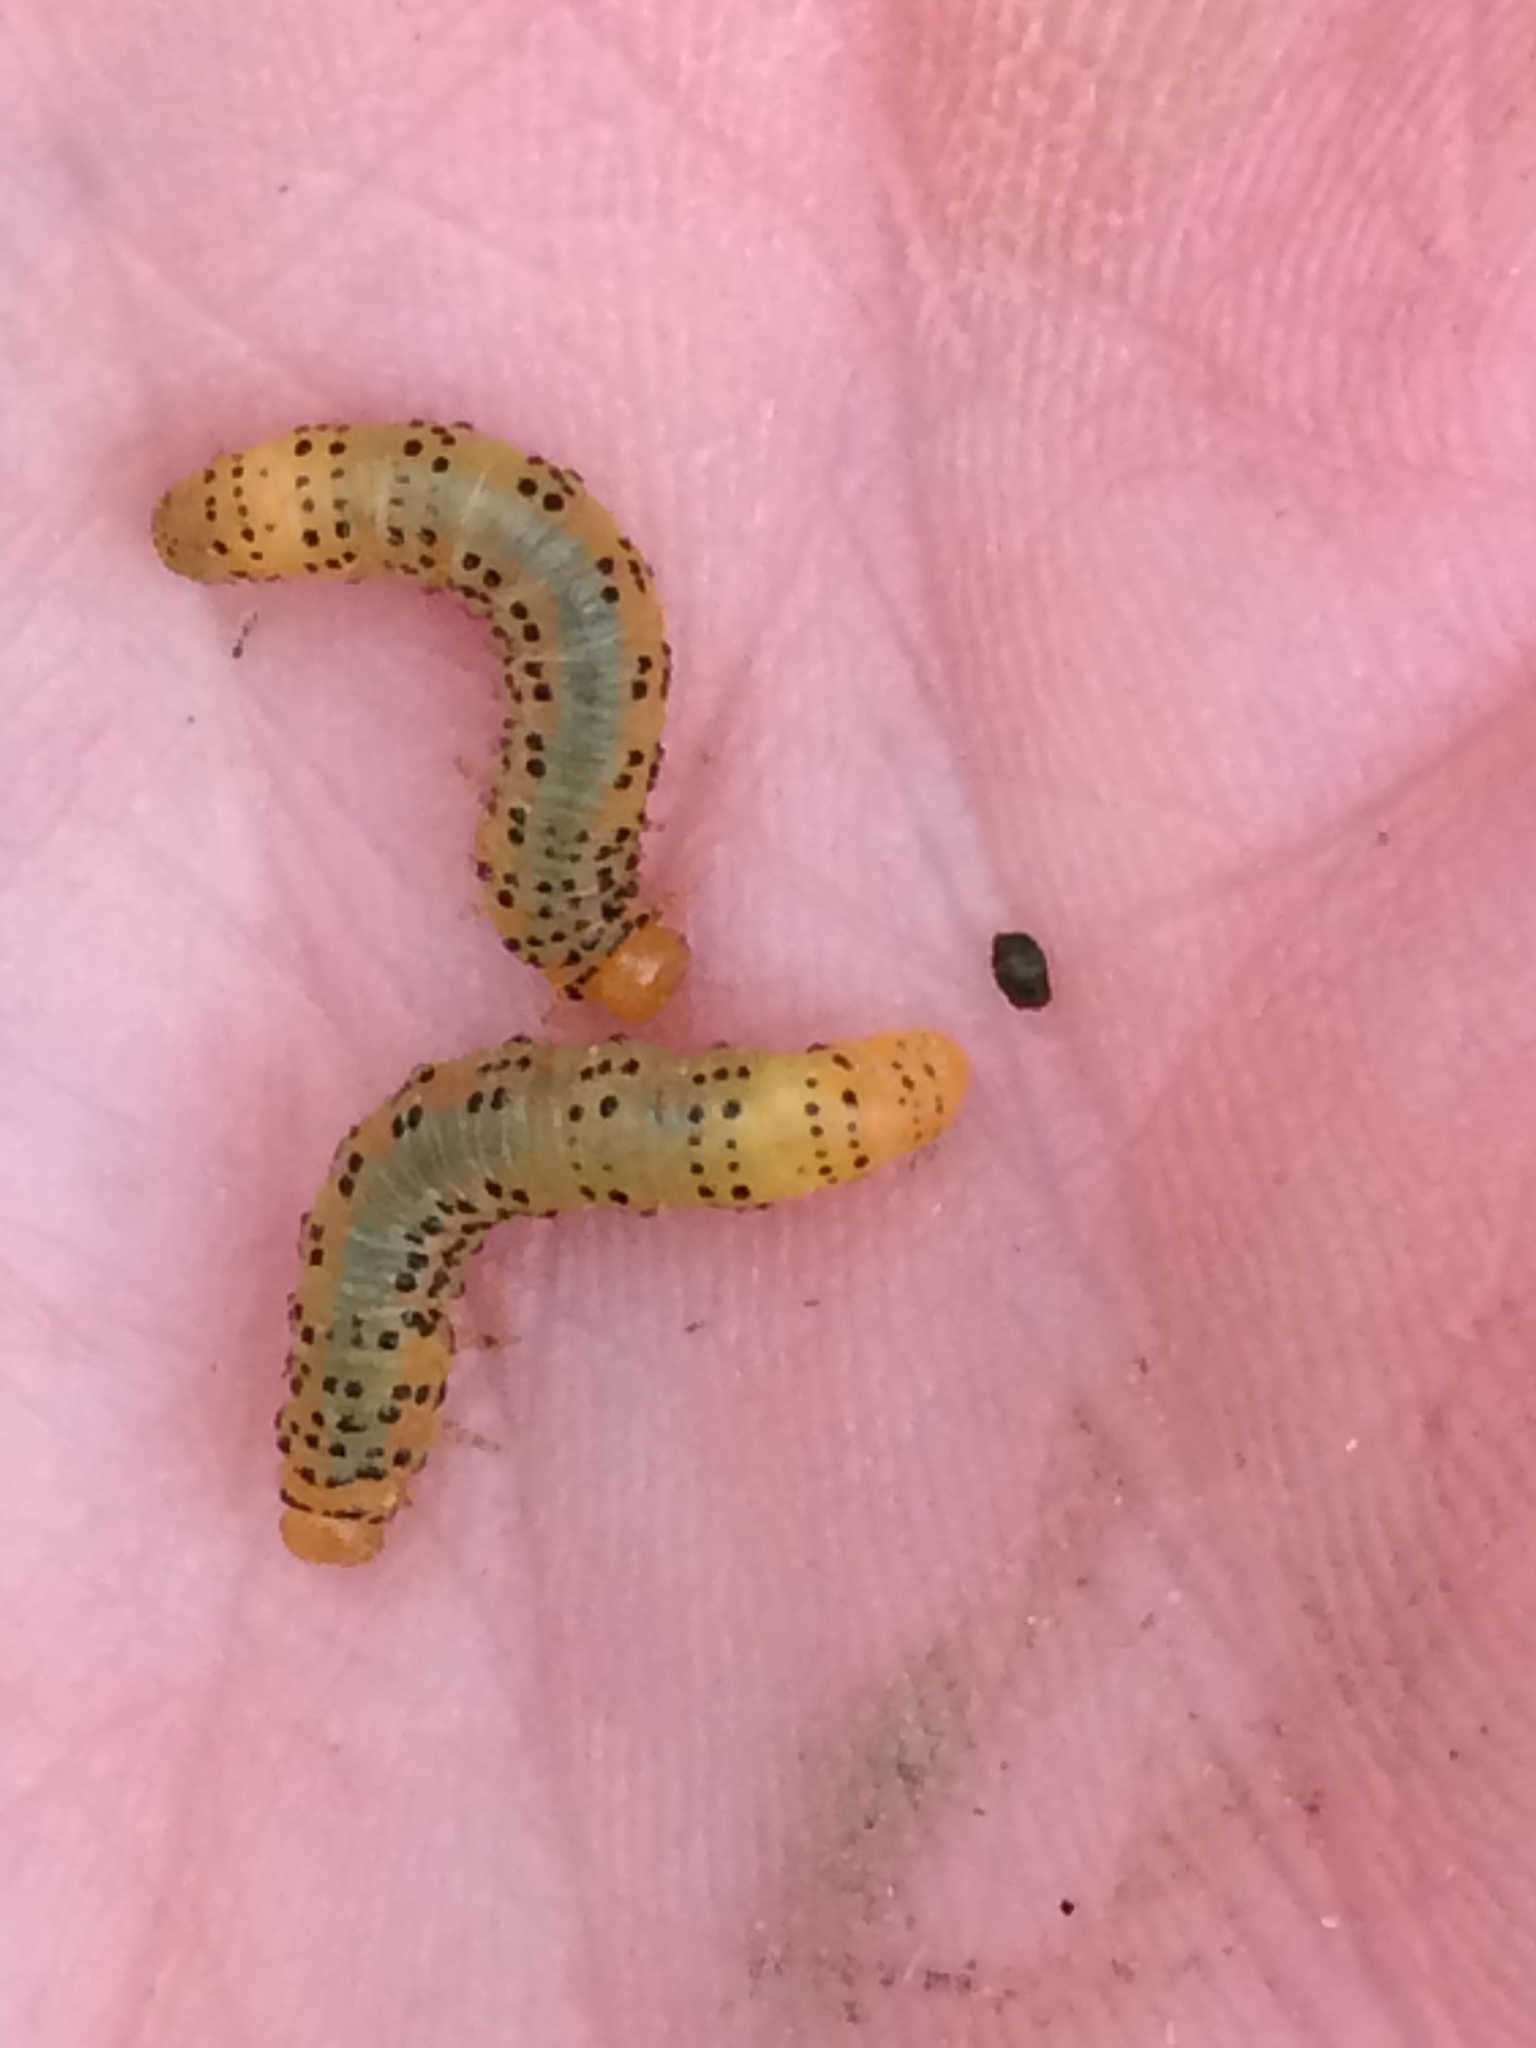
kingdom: Animalia
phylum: Arthropoda
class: Insecta
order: Hymenoptera
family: Tenthredinidae
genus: Pristiphora
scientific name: Pristiphora geniculata
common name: Mountain-ash sawfly
